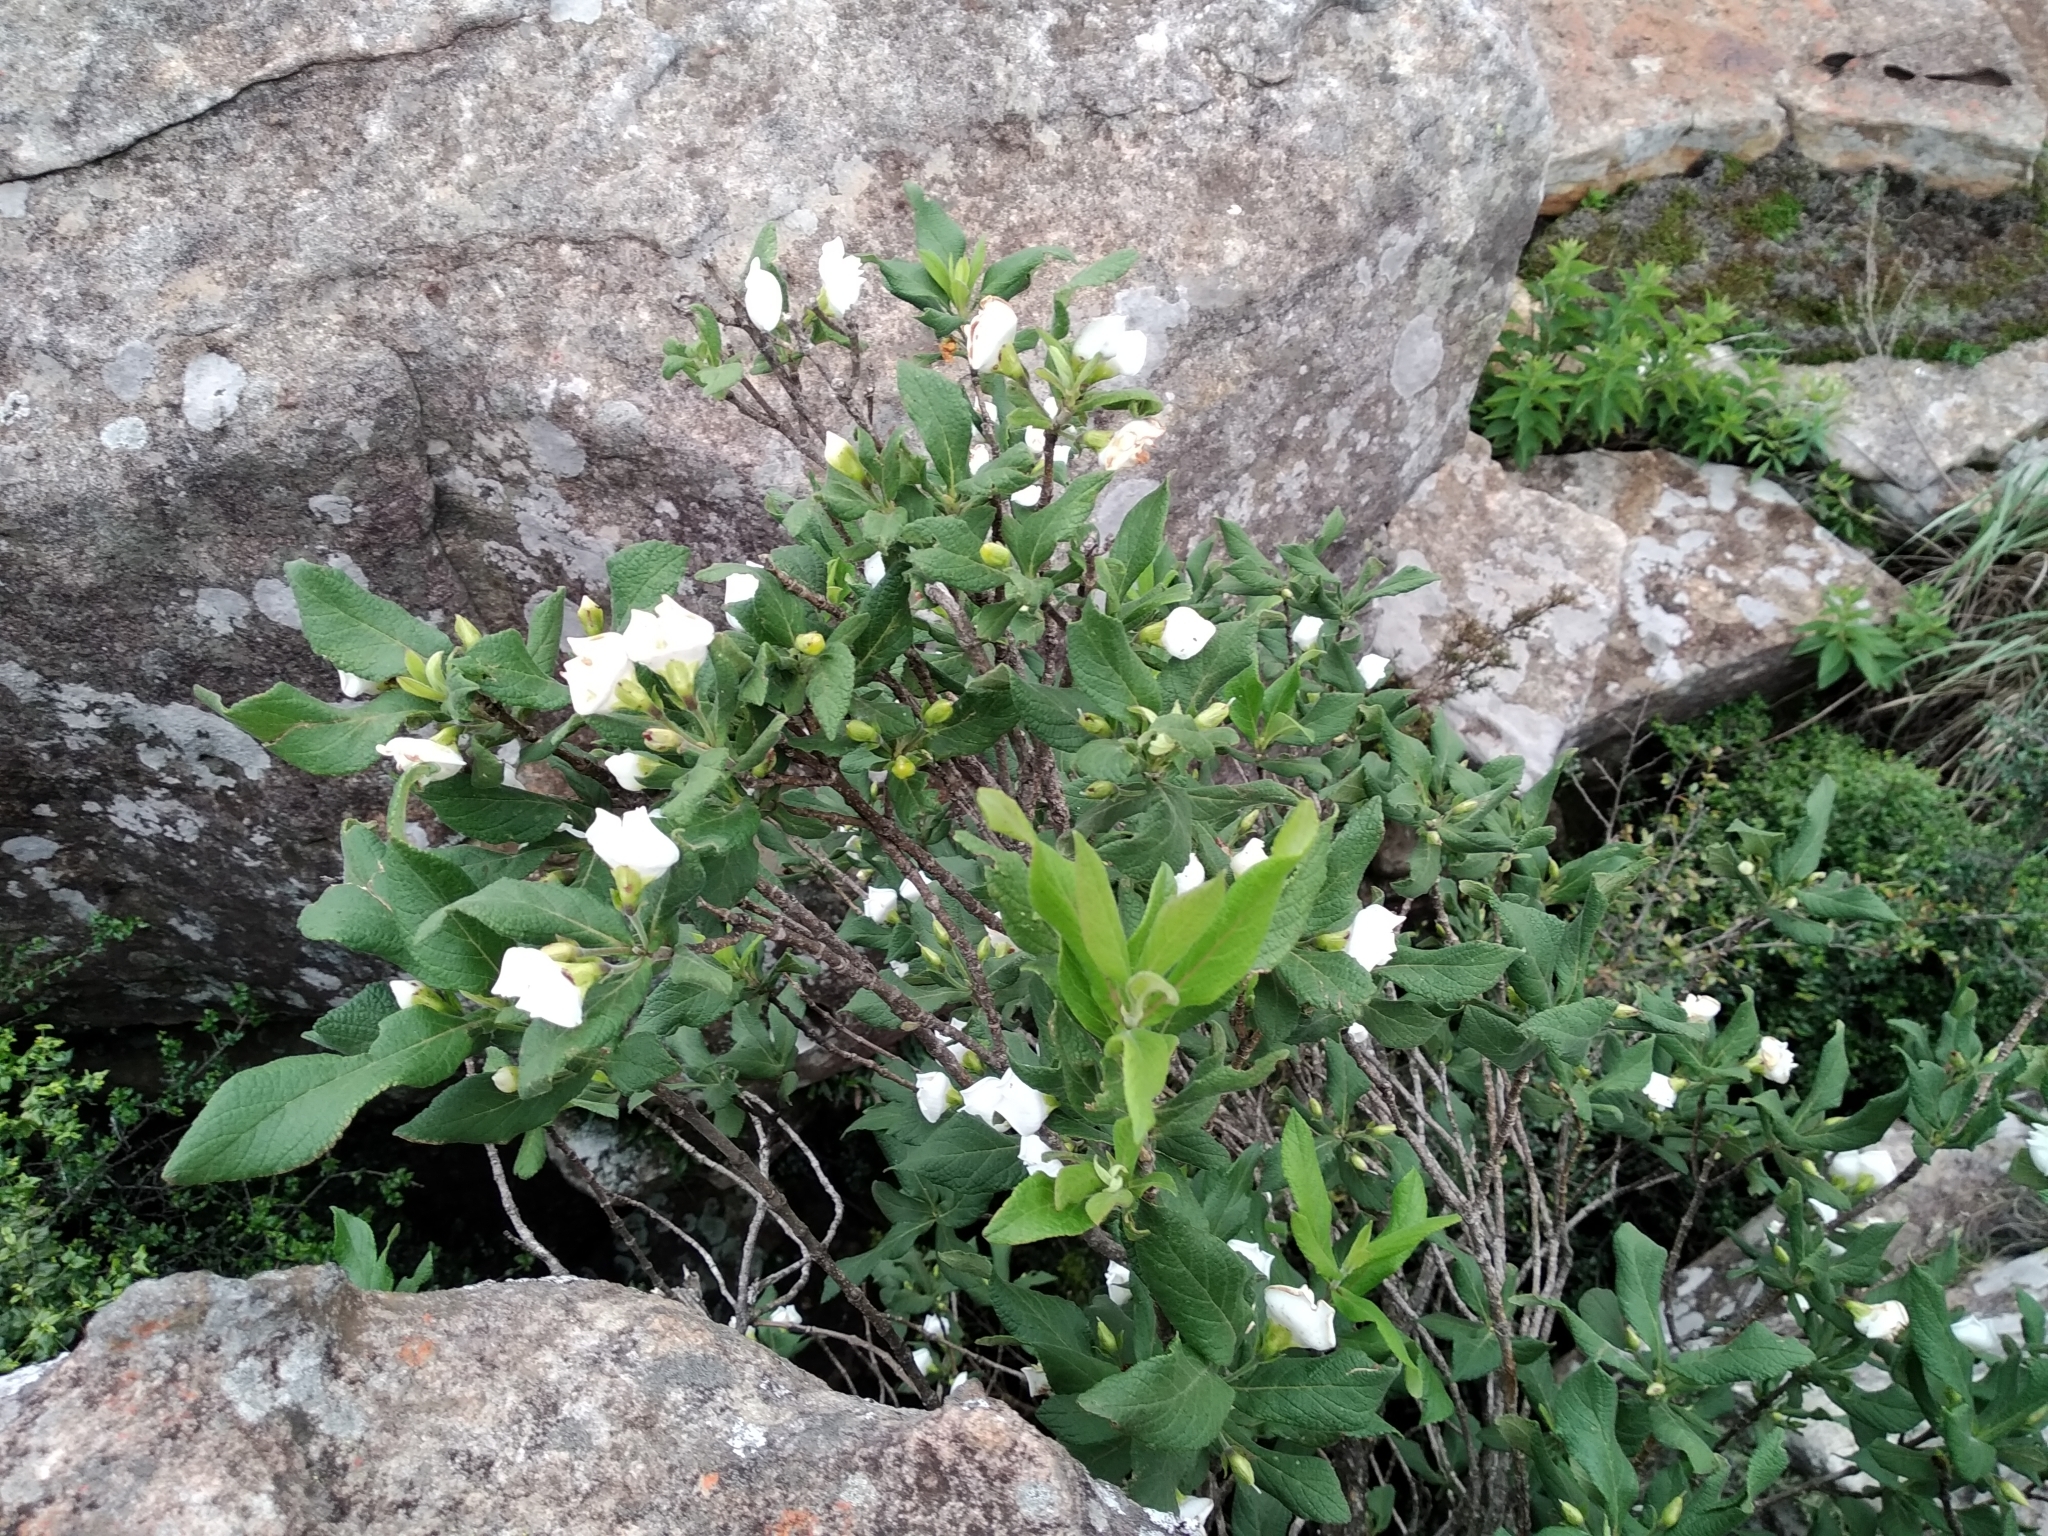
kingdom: Plantae
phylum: Tracheophyta
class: Magnoliopsida
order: Lamiales
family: Stilbaceae
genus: Bowkeria
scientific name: Bowkeria verticillata
